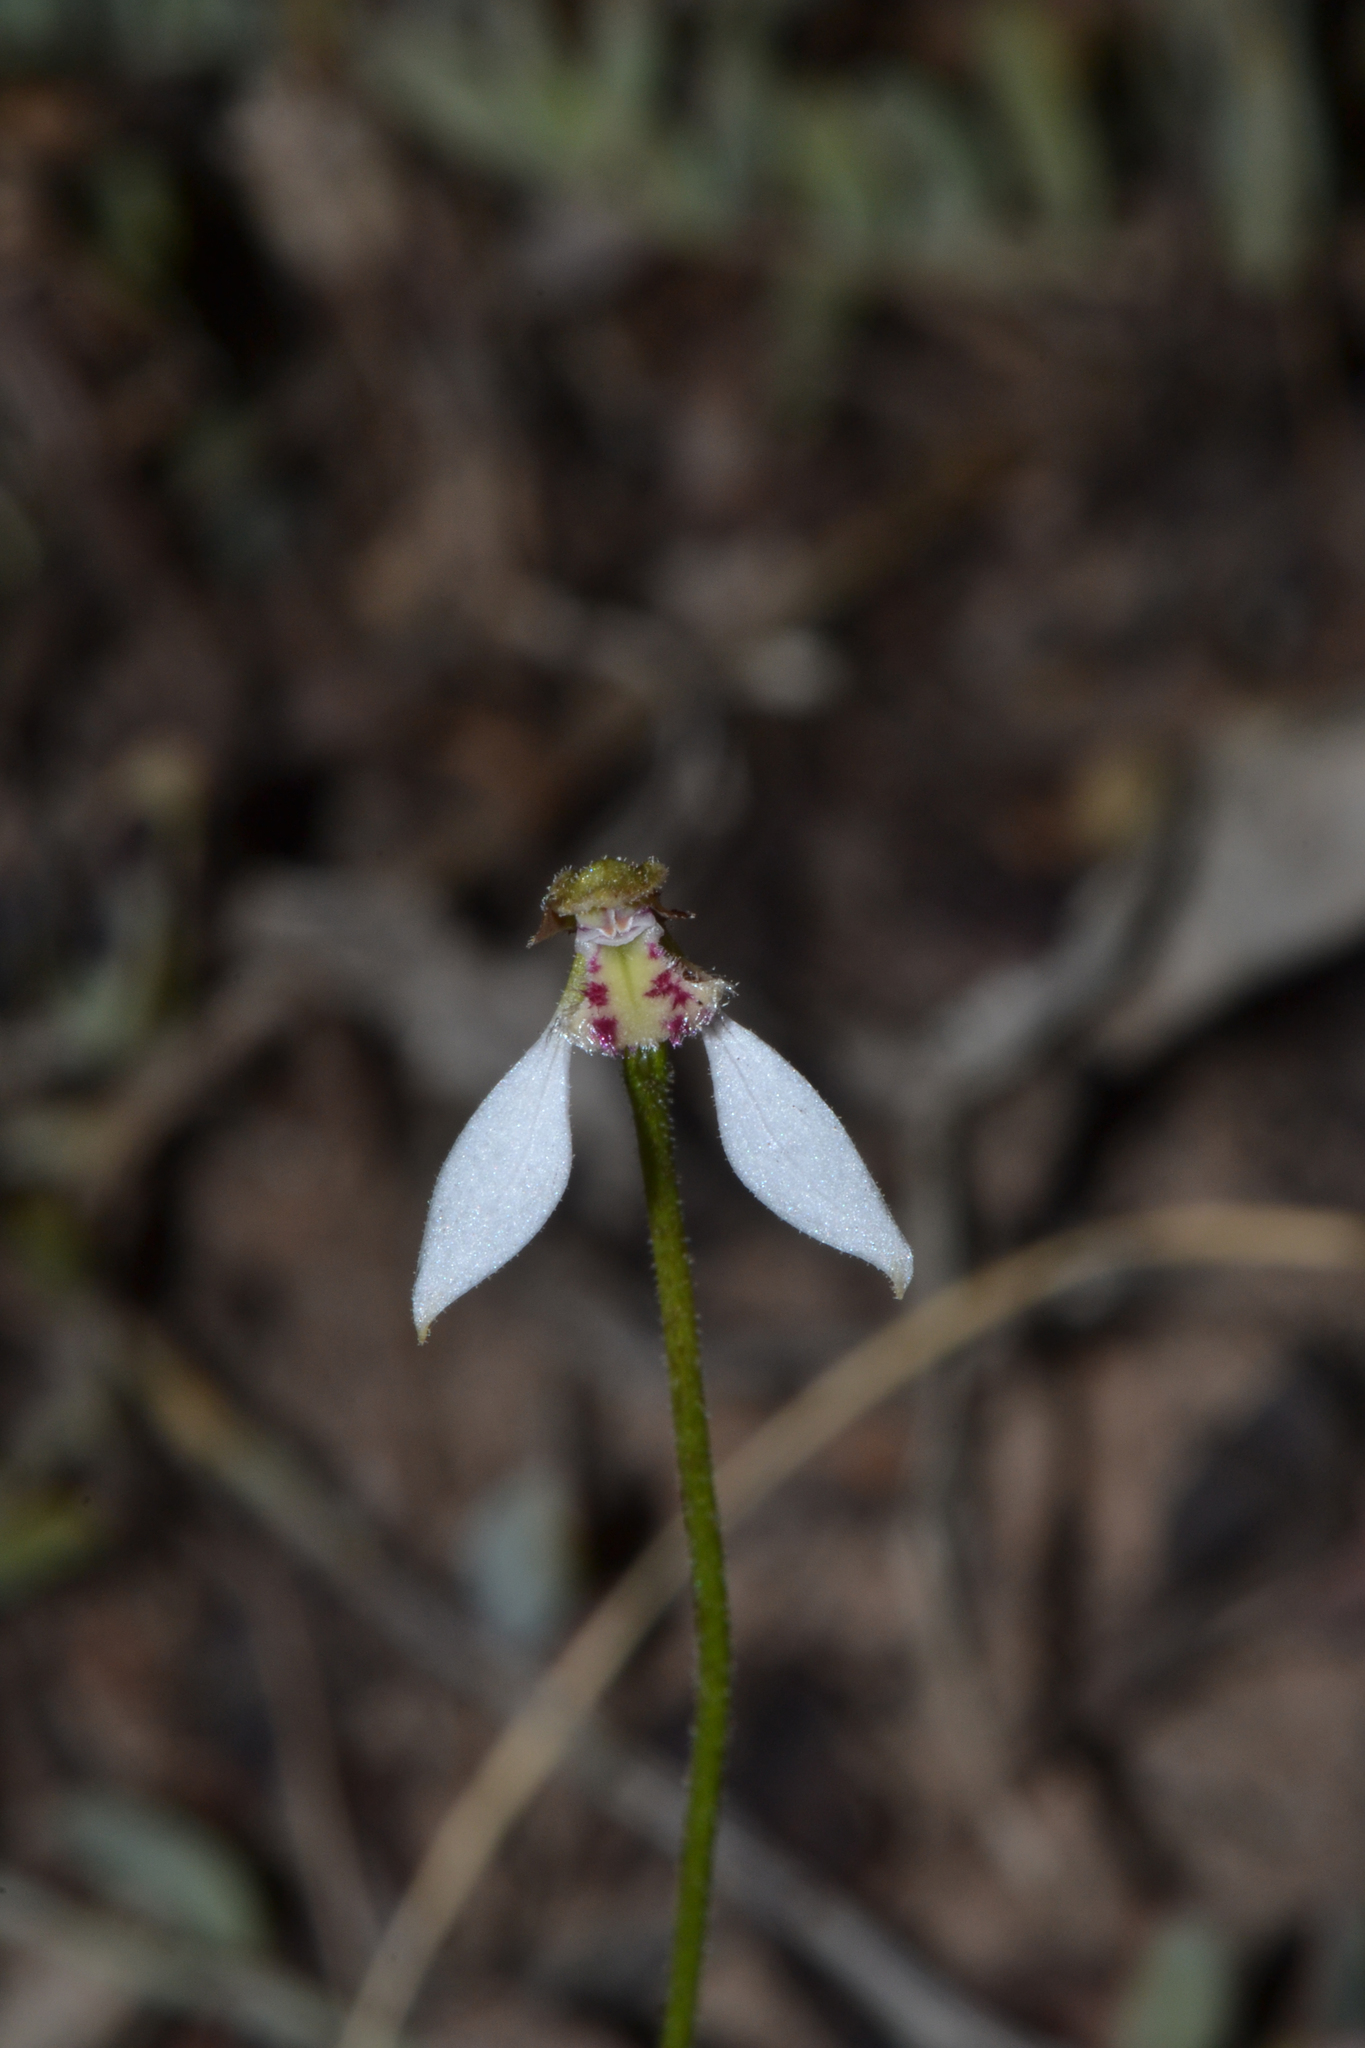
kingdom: Plantae
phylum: Tracheophyta
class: Liliopsida
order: Asparagales
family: Orchidaceae
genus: Eriochilus
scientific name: Eriochilus dilatatus
